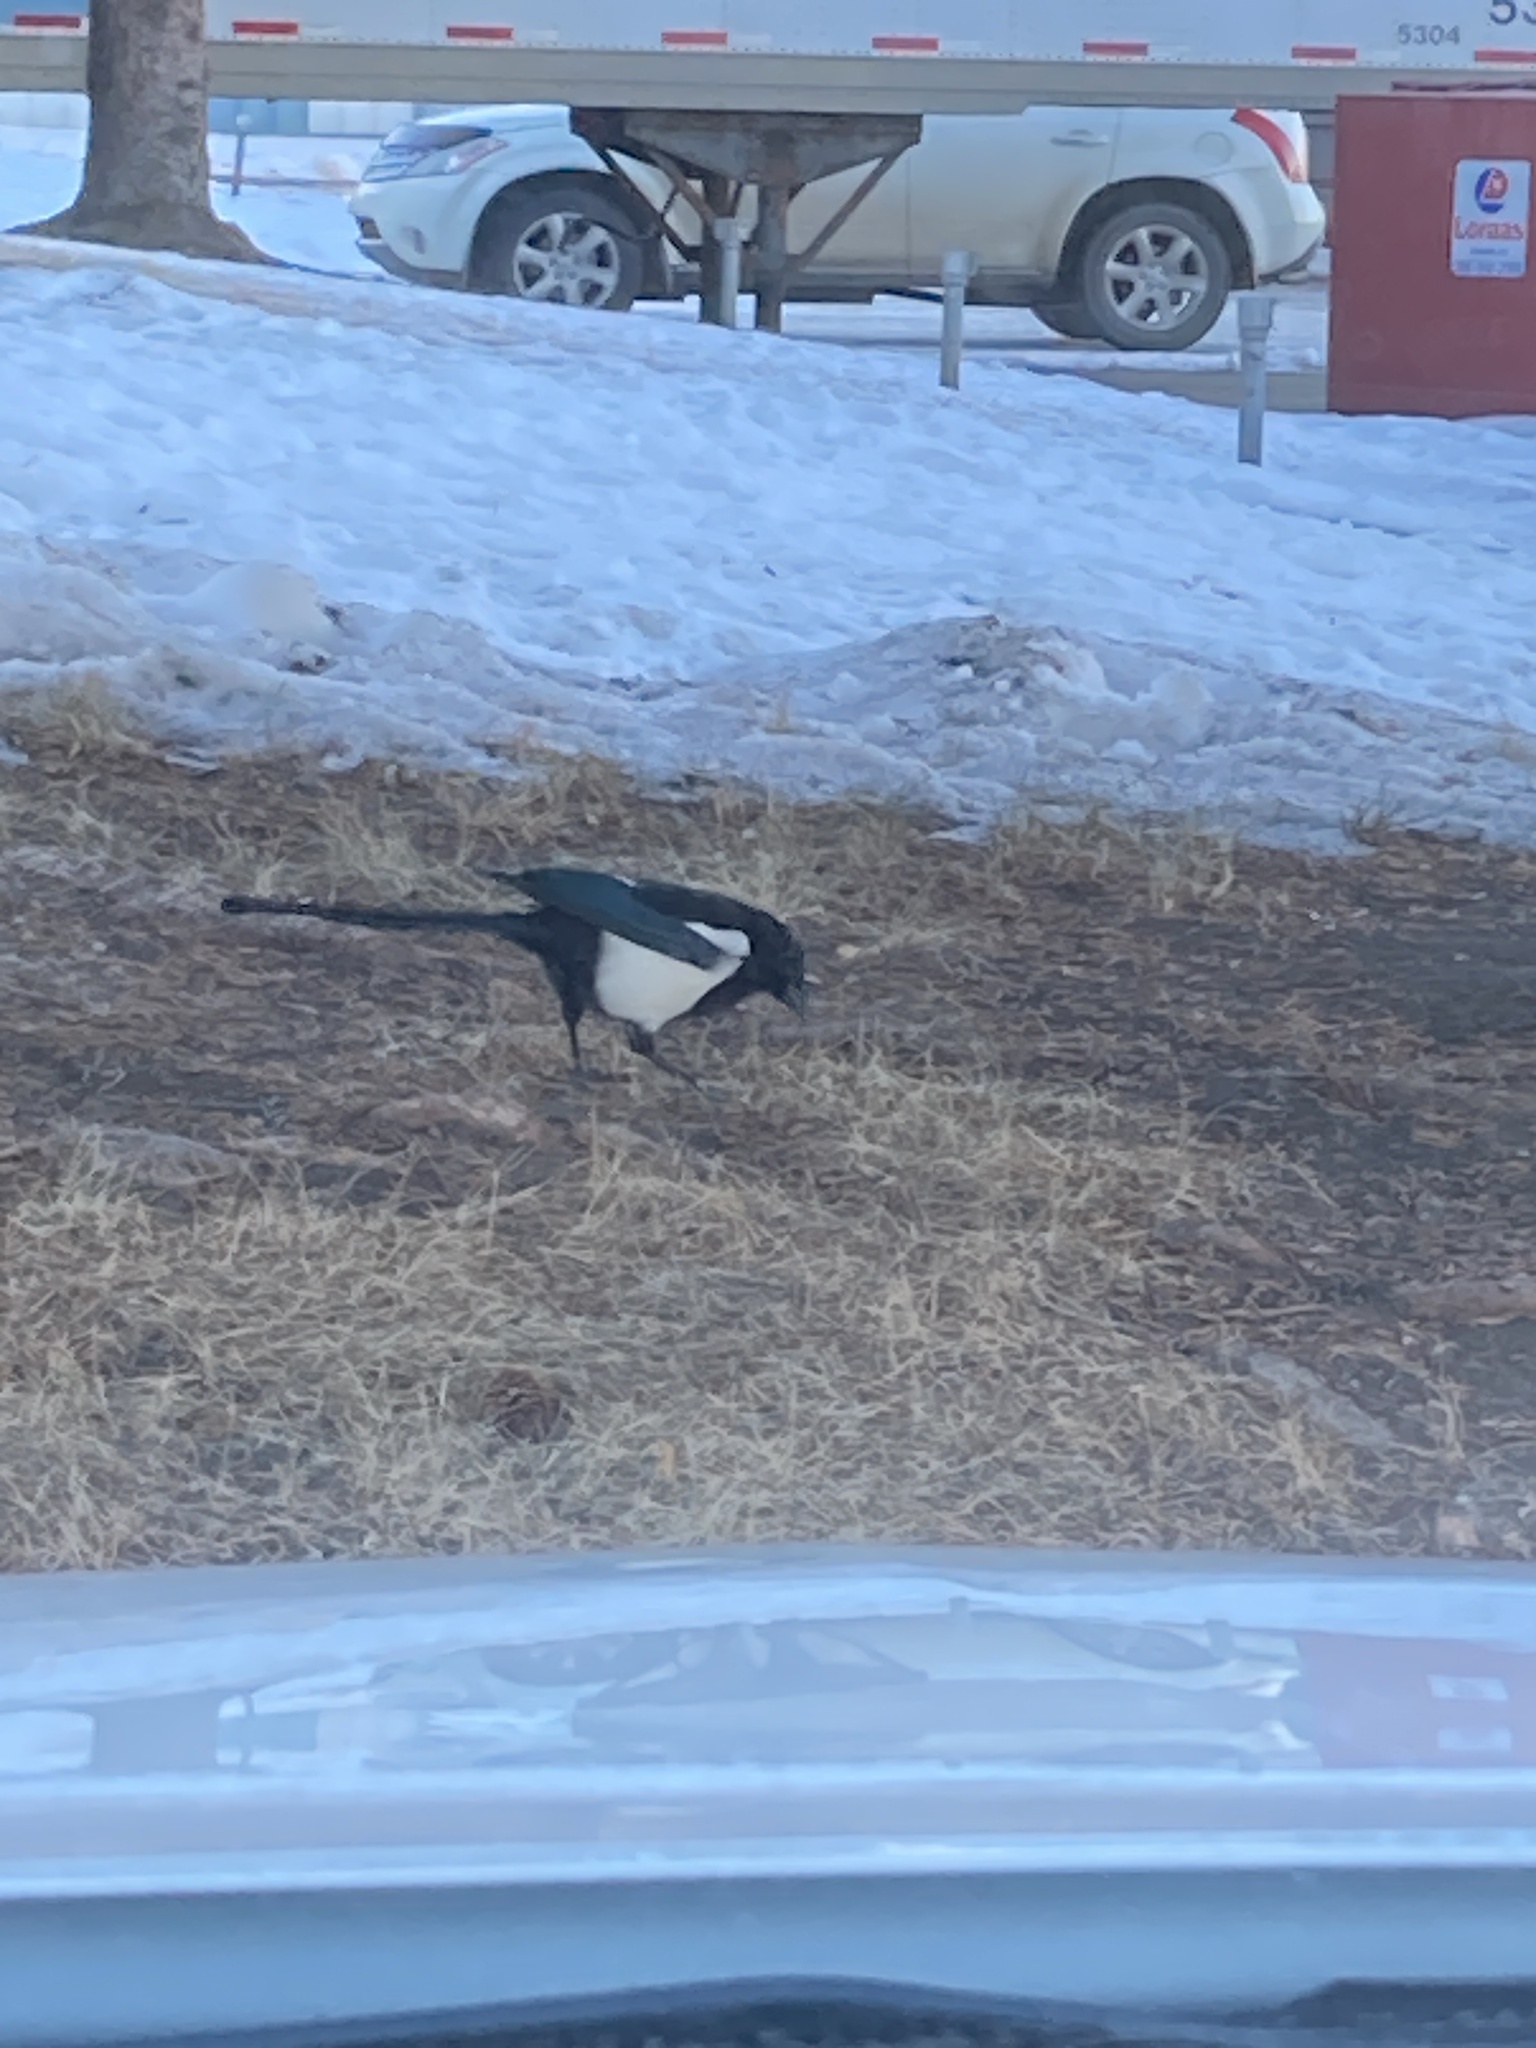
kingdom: Animalia
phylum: Chordata
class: Aves
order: Passeriformes
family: Corvidae
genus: Pica
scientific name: Pica hudsonia
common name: Black-billed magpie
